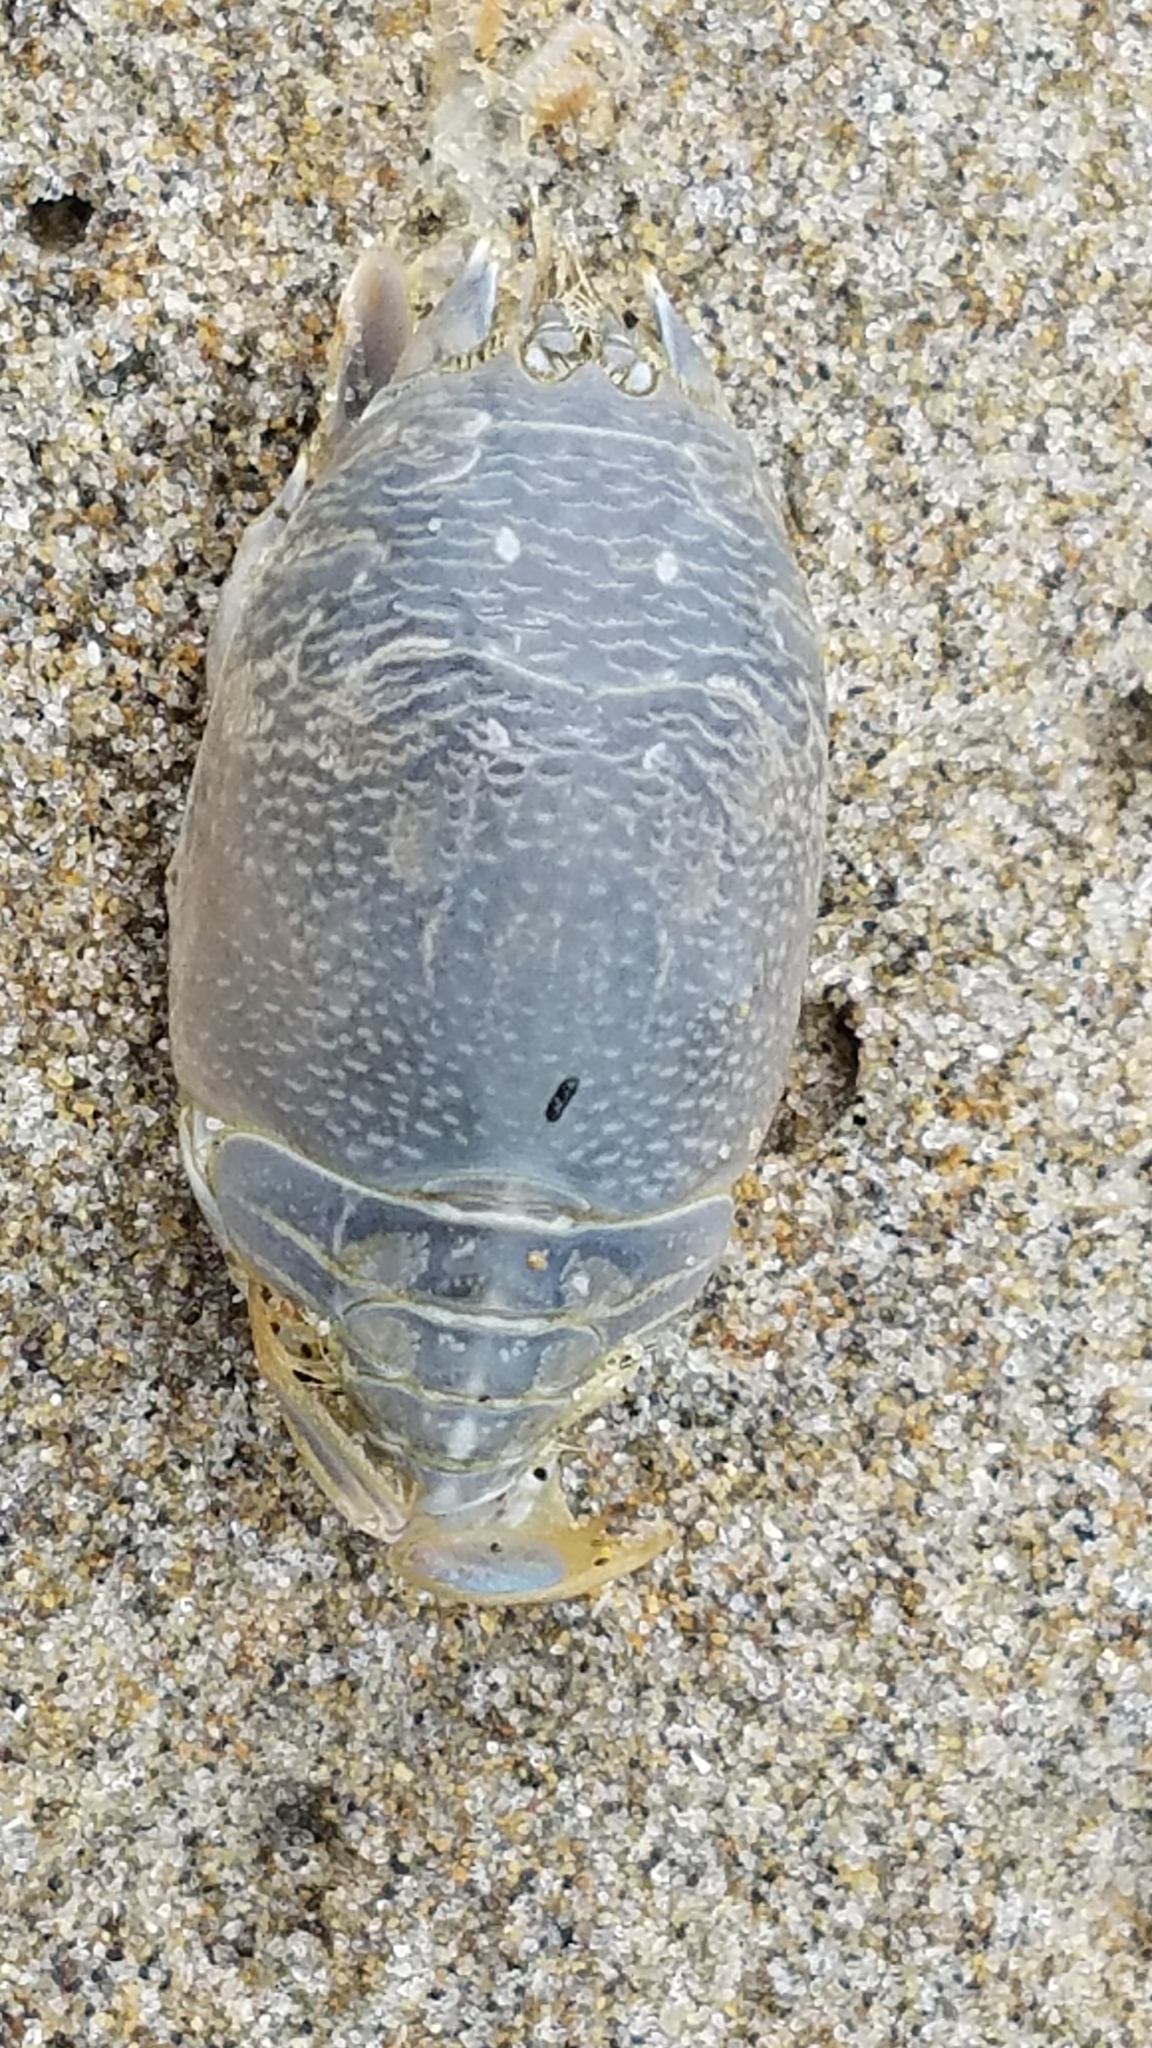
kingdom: Animalia
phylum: Arthropoda
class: Malacostraca
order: Decapoda
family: Hippidae
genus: Emerita
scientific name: Emerita analoga
